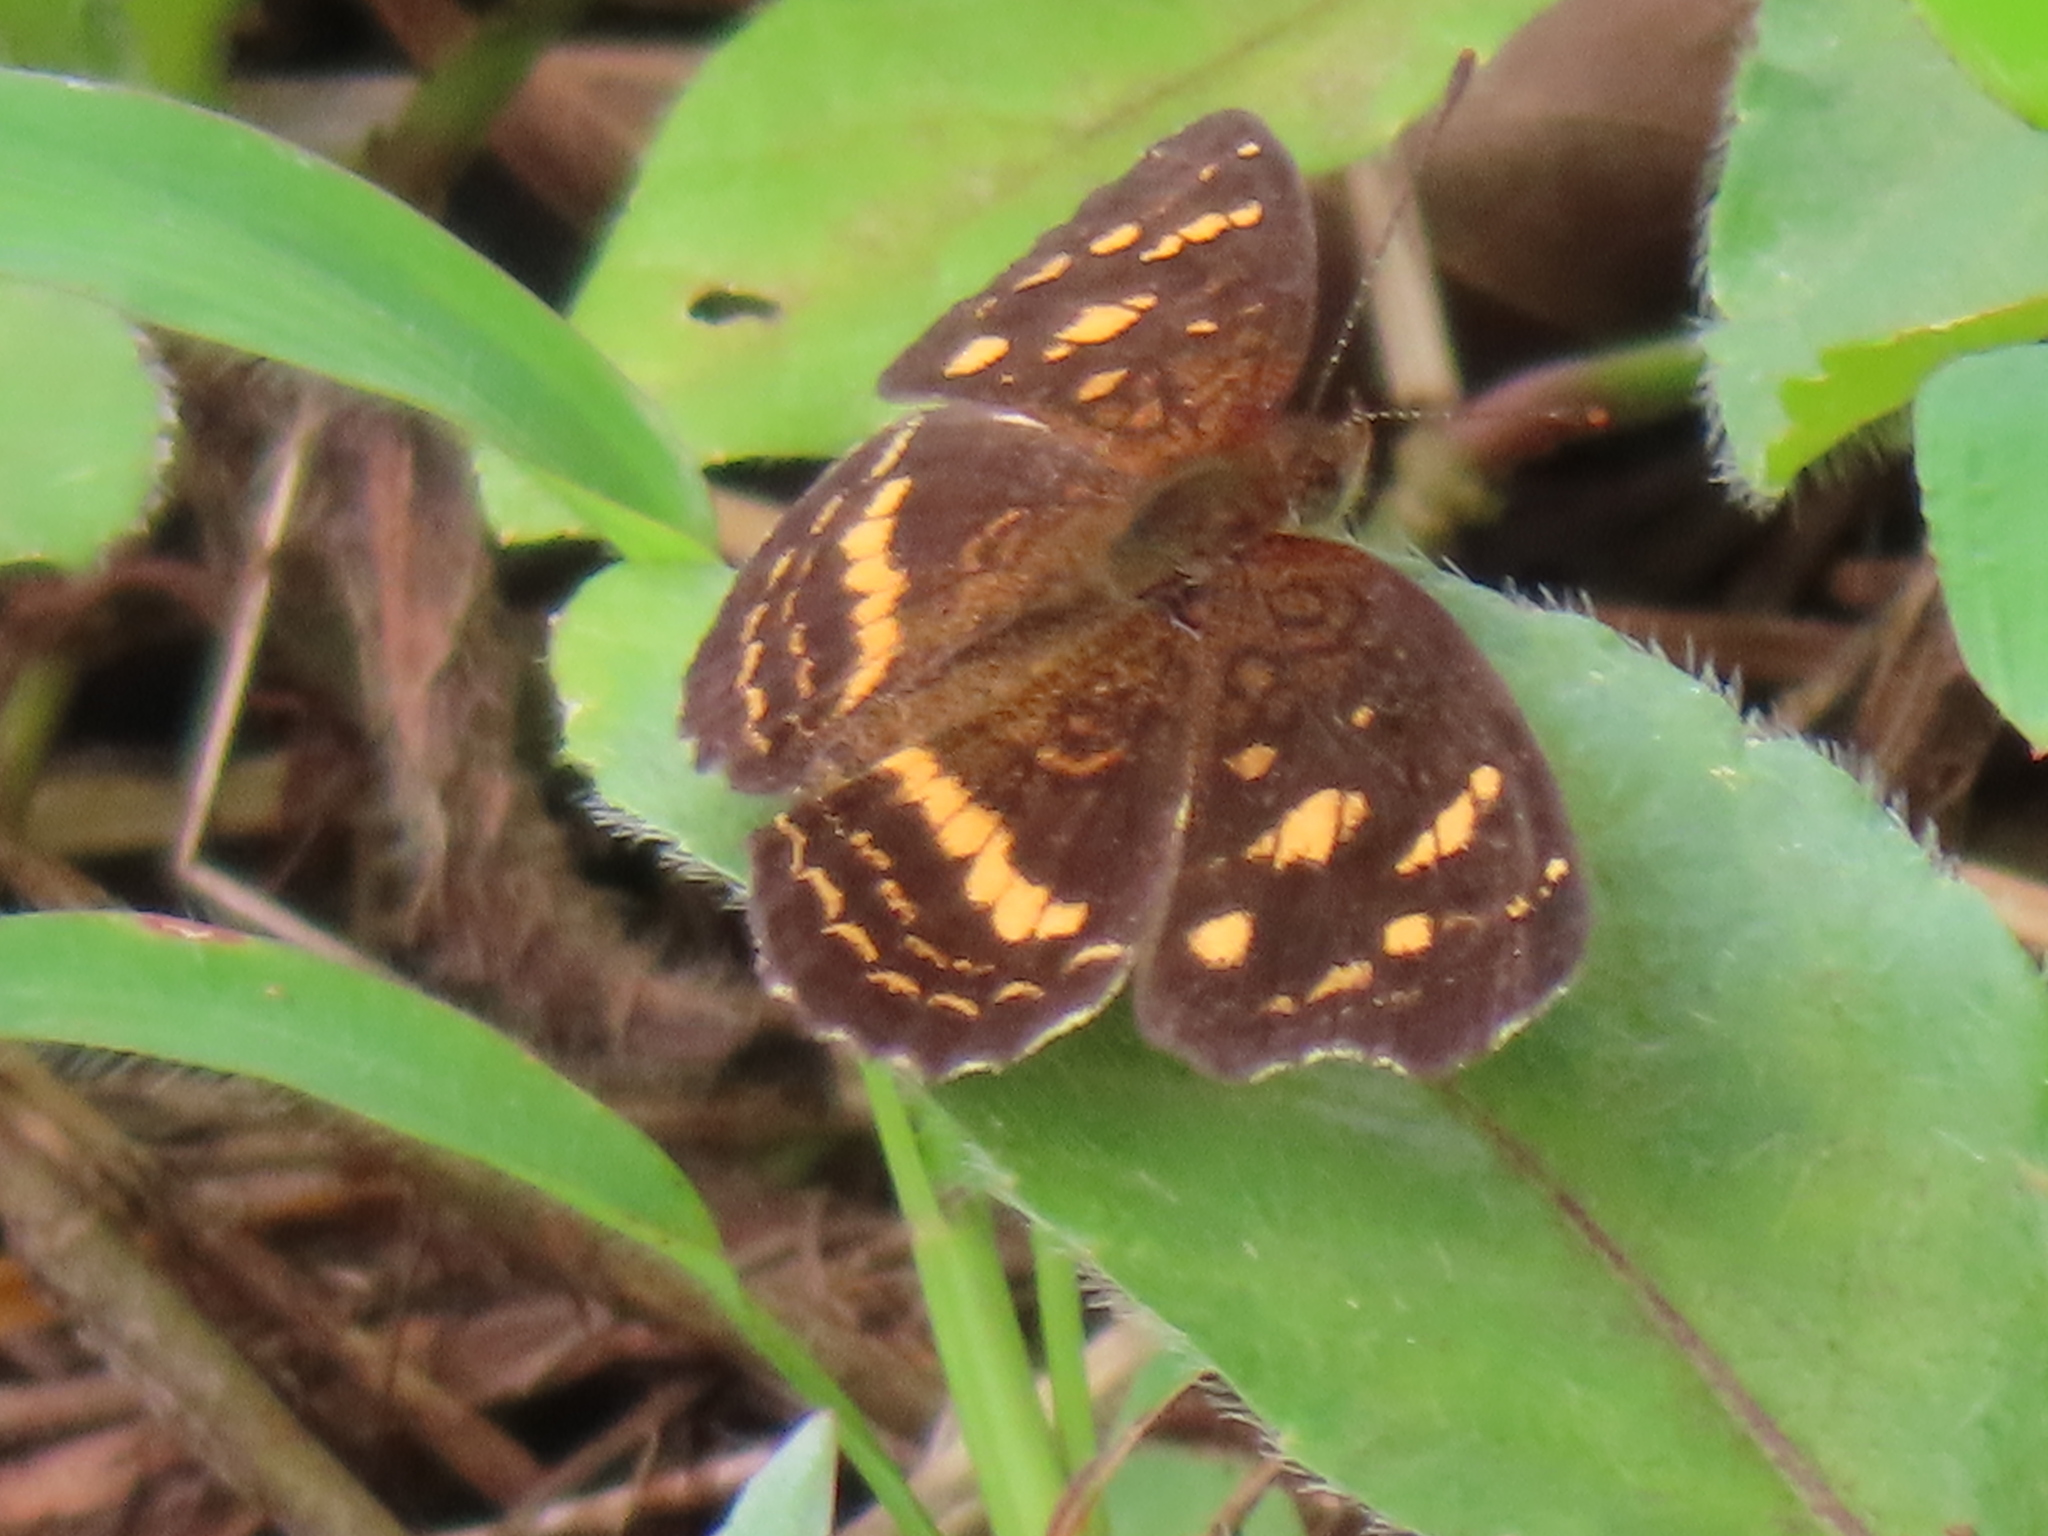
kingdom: Animalia
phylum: Arthropoda
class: Insecta
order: Lepidoptera
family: Nymphalidae
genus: Anthanassa
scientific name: Anthanassa drusilla
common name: Orange-patched crescent
